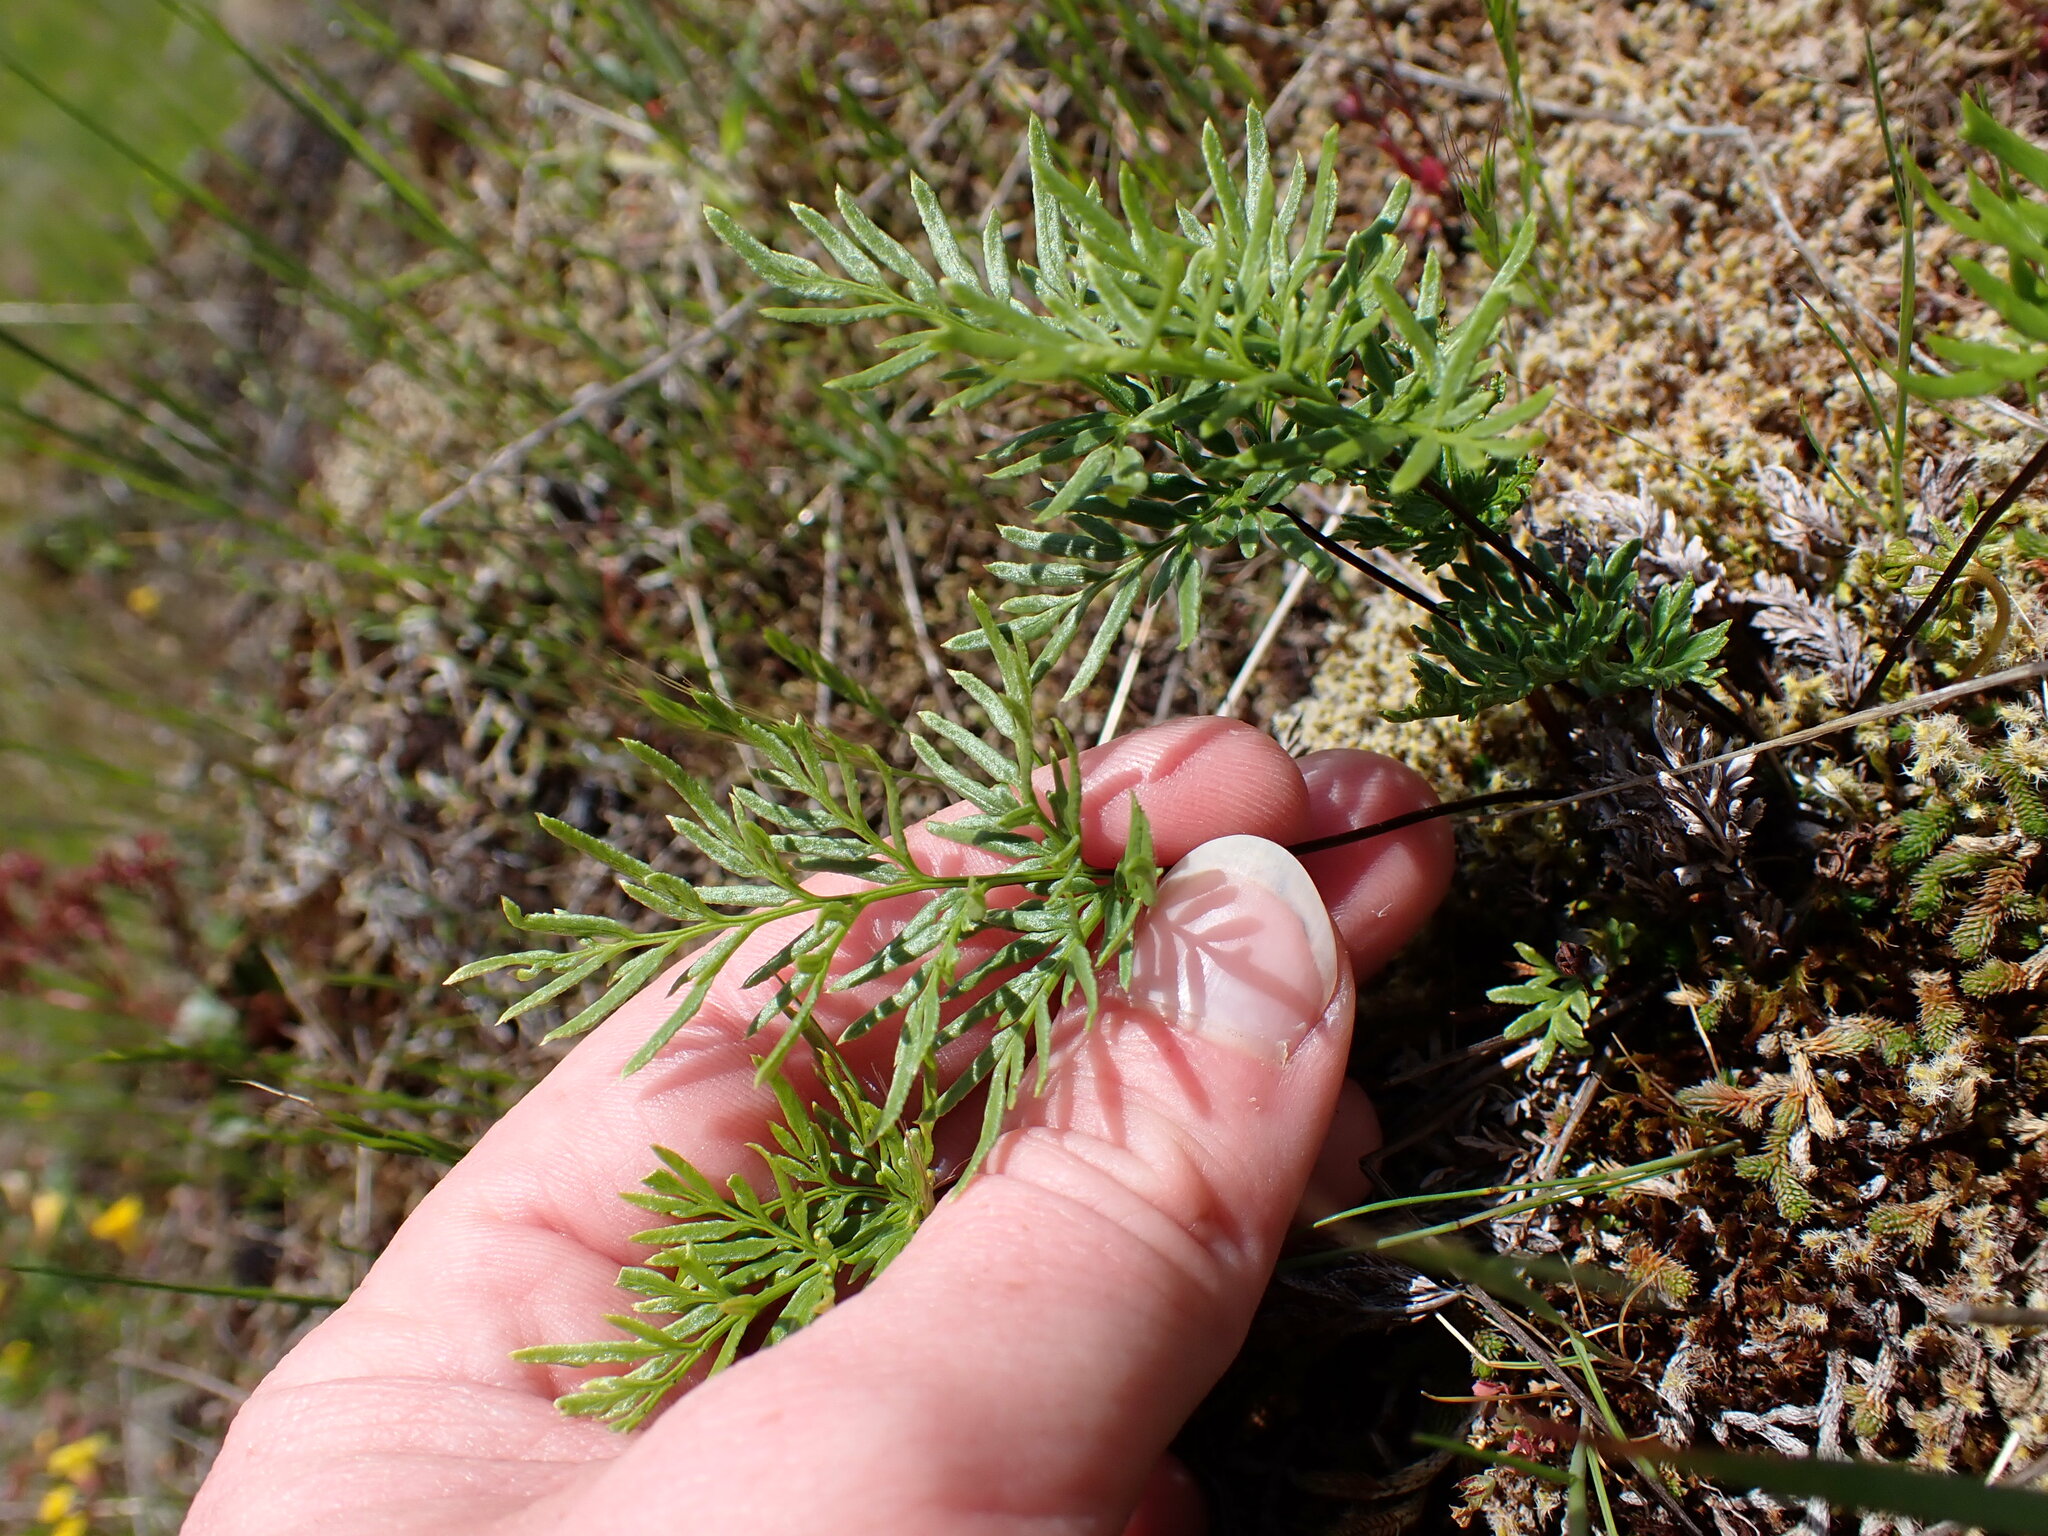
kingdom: Plantae
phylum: Tracheophyta
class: Polypodiopsida
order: Polypodiales
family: Pteridaceae
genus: Aspidotis
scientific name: Aspidotis densa
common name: Indian's dream
